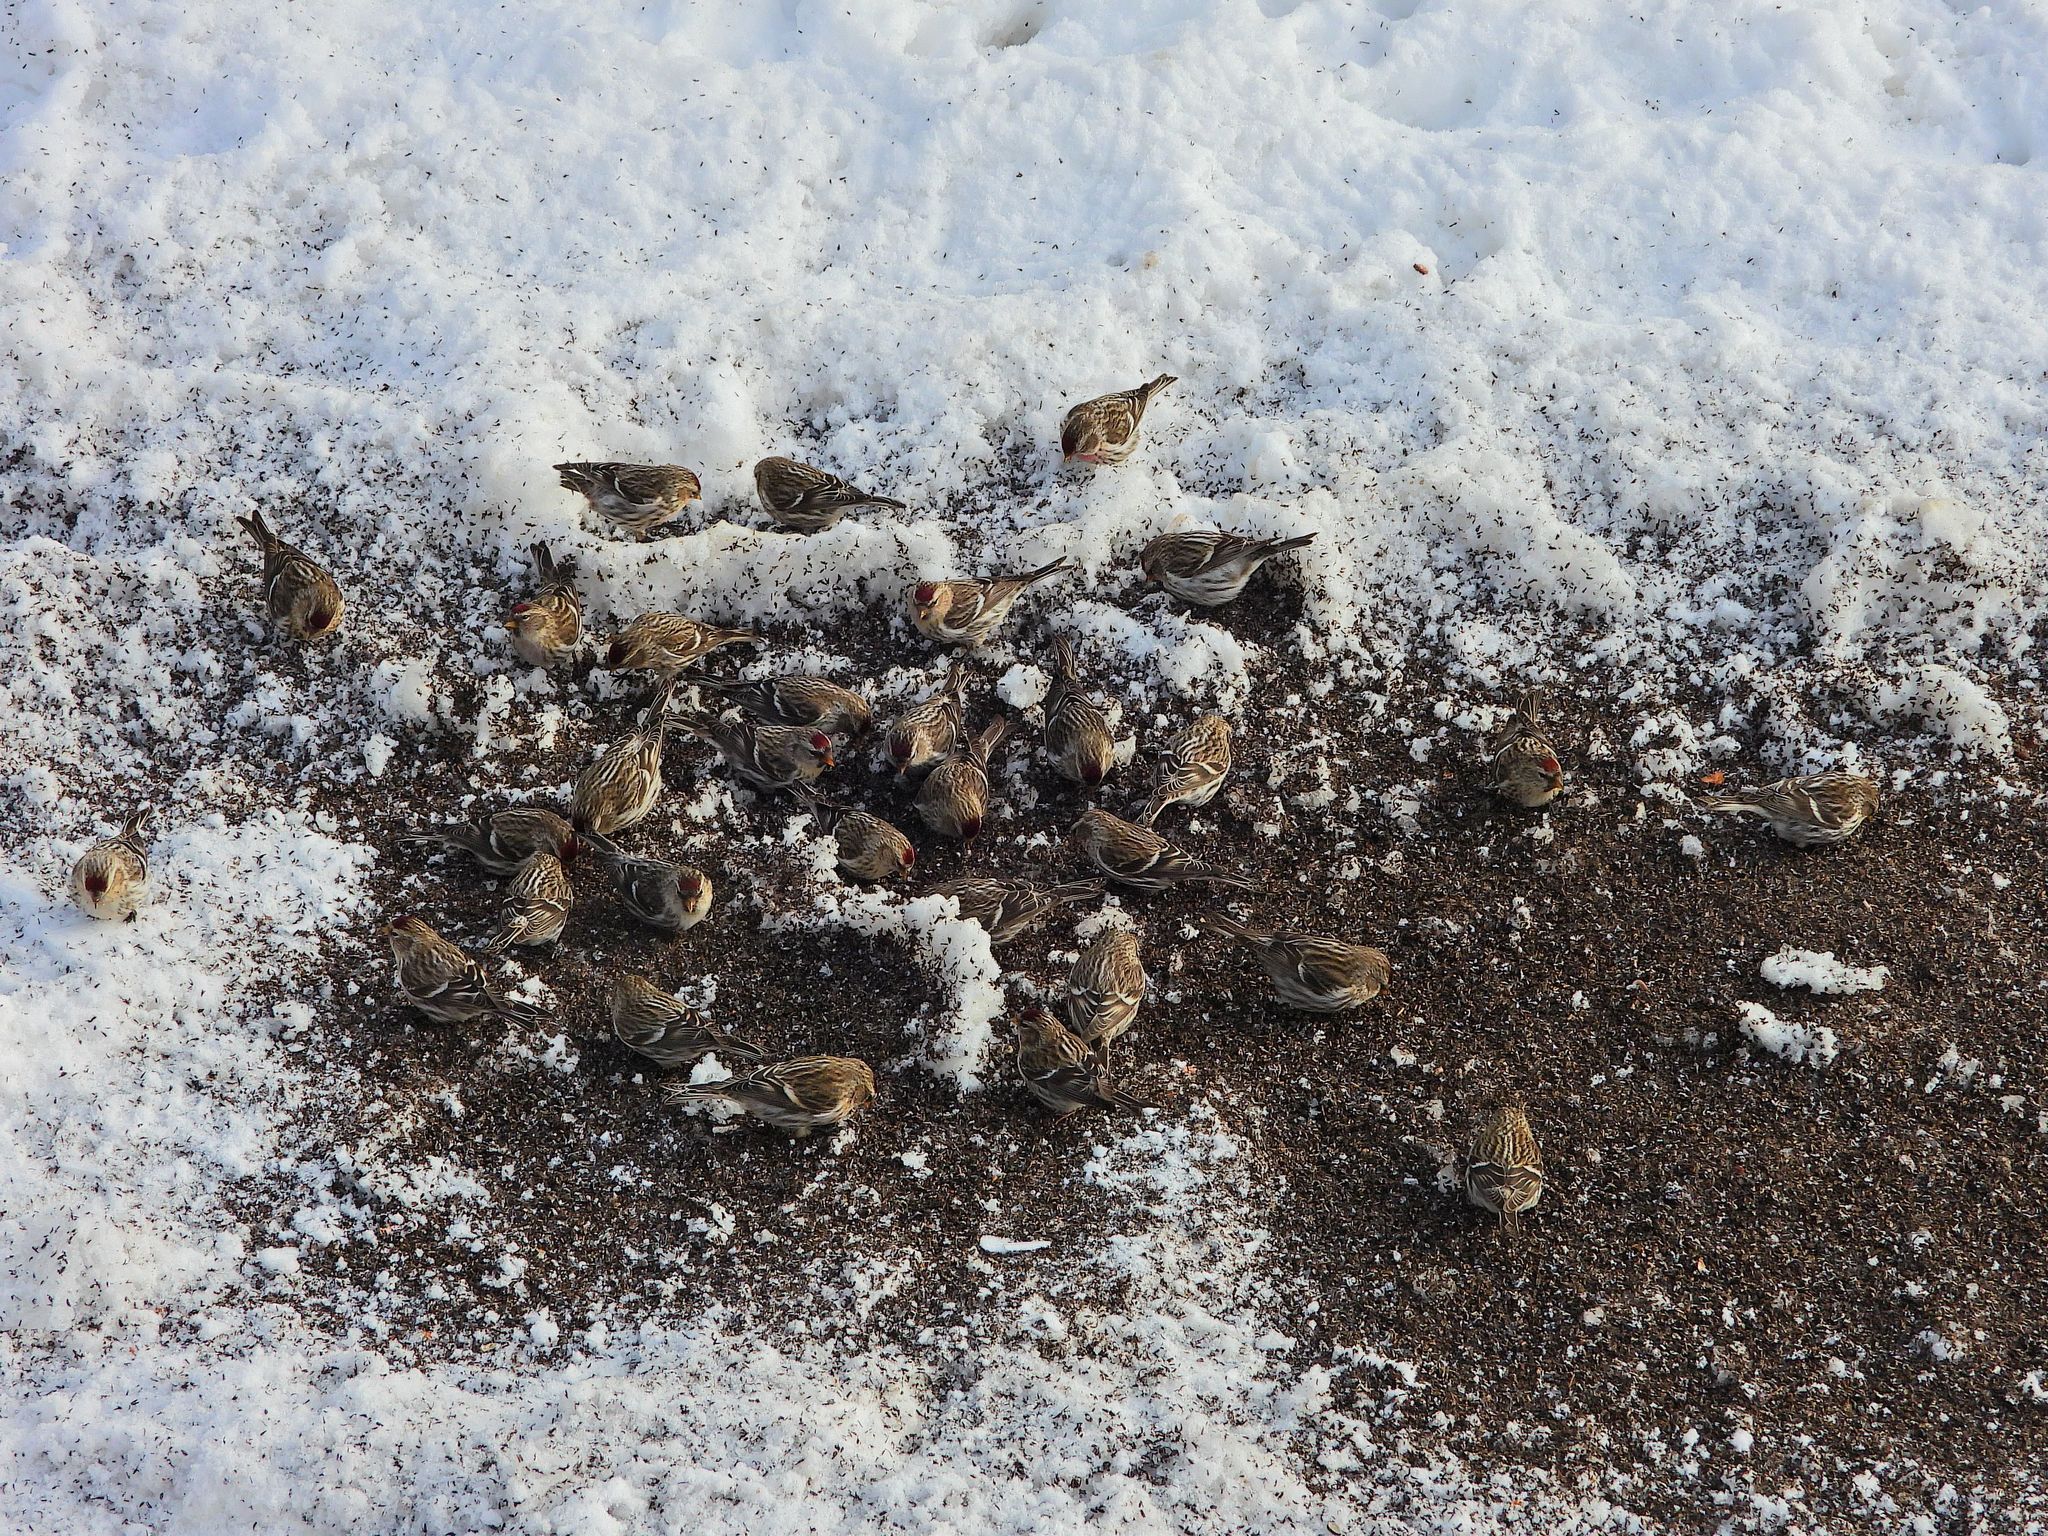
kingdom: Animalia
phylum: Chordata
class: Aves
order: Passeriformes
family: Fringillidae
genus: Acanthis
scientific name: Acanthis flammea
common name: Common redpoll
